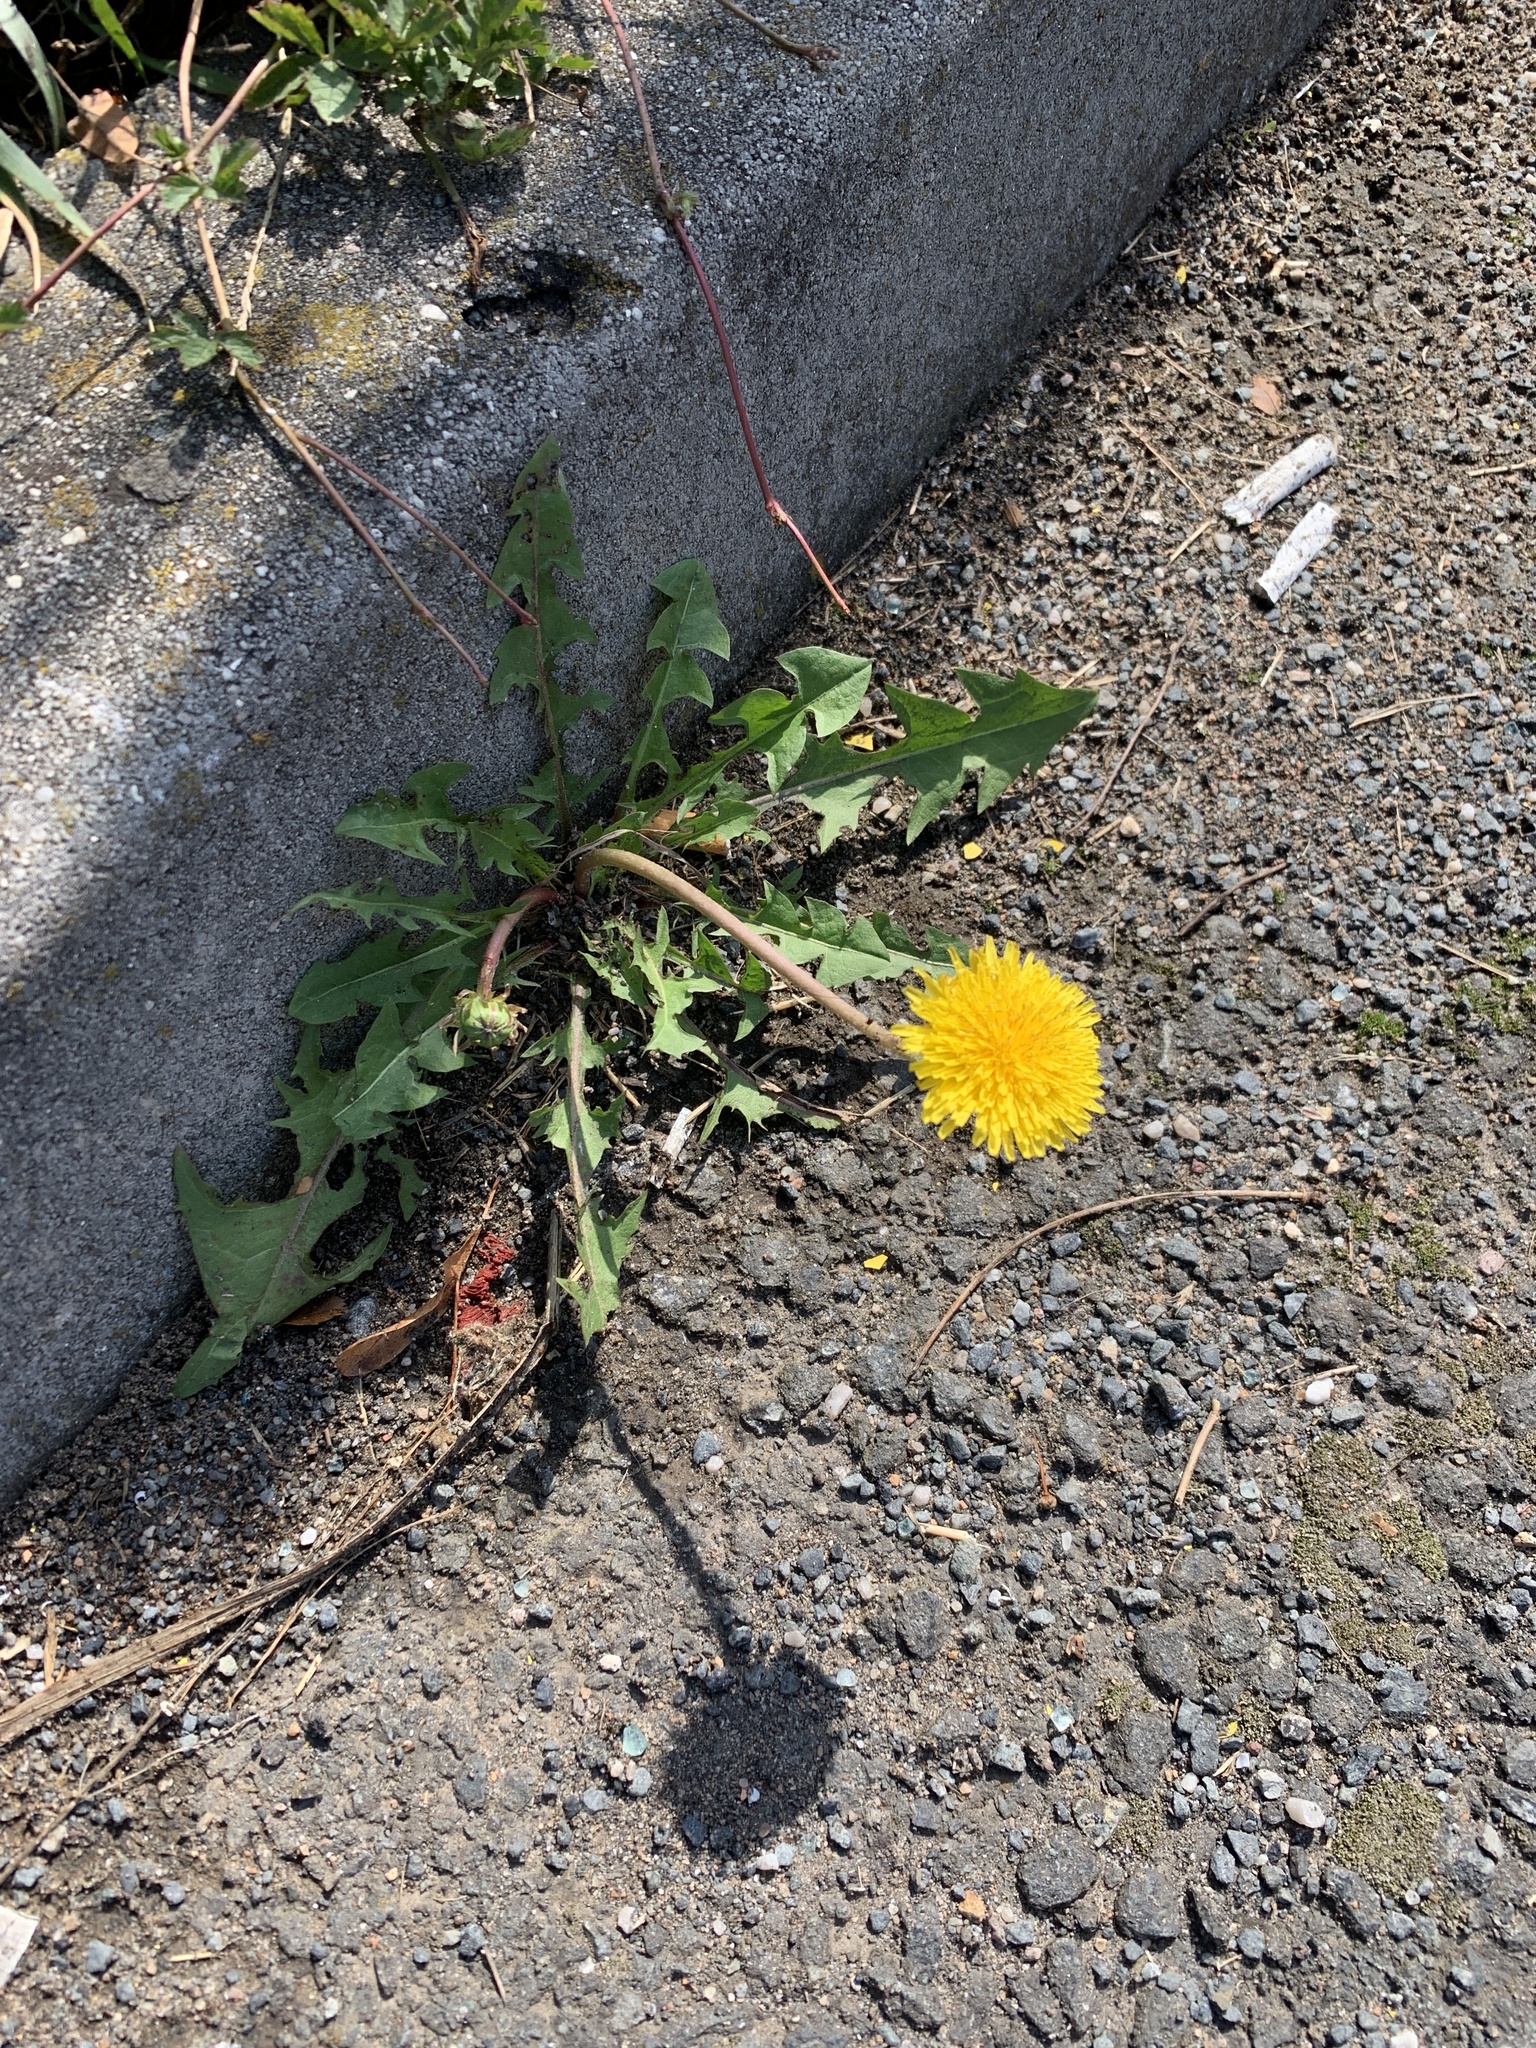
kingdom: Plantae
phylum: Tracheophyta
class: Magnoliopsida
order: Asterales
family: Asteraceae
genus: Taraxacum
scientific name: Taraxacum officinale
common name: Common dandelion
